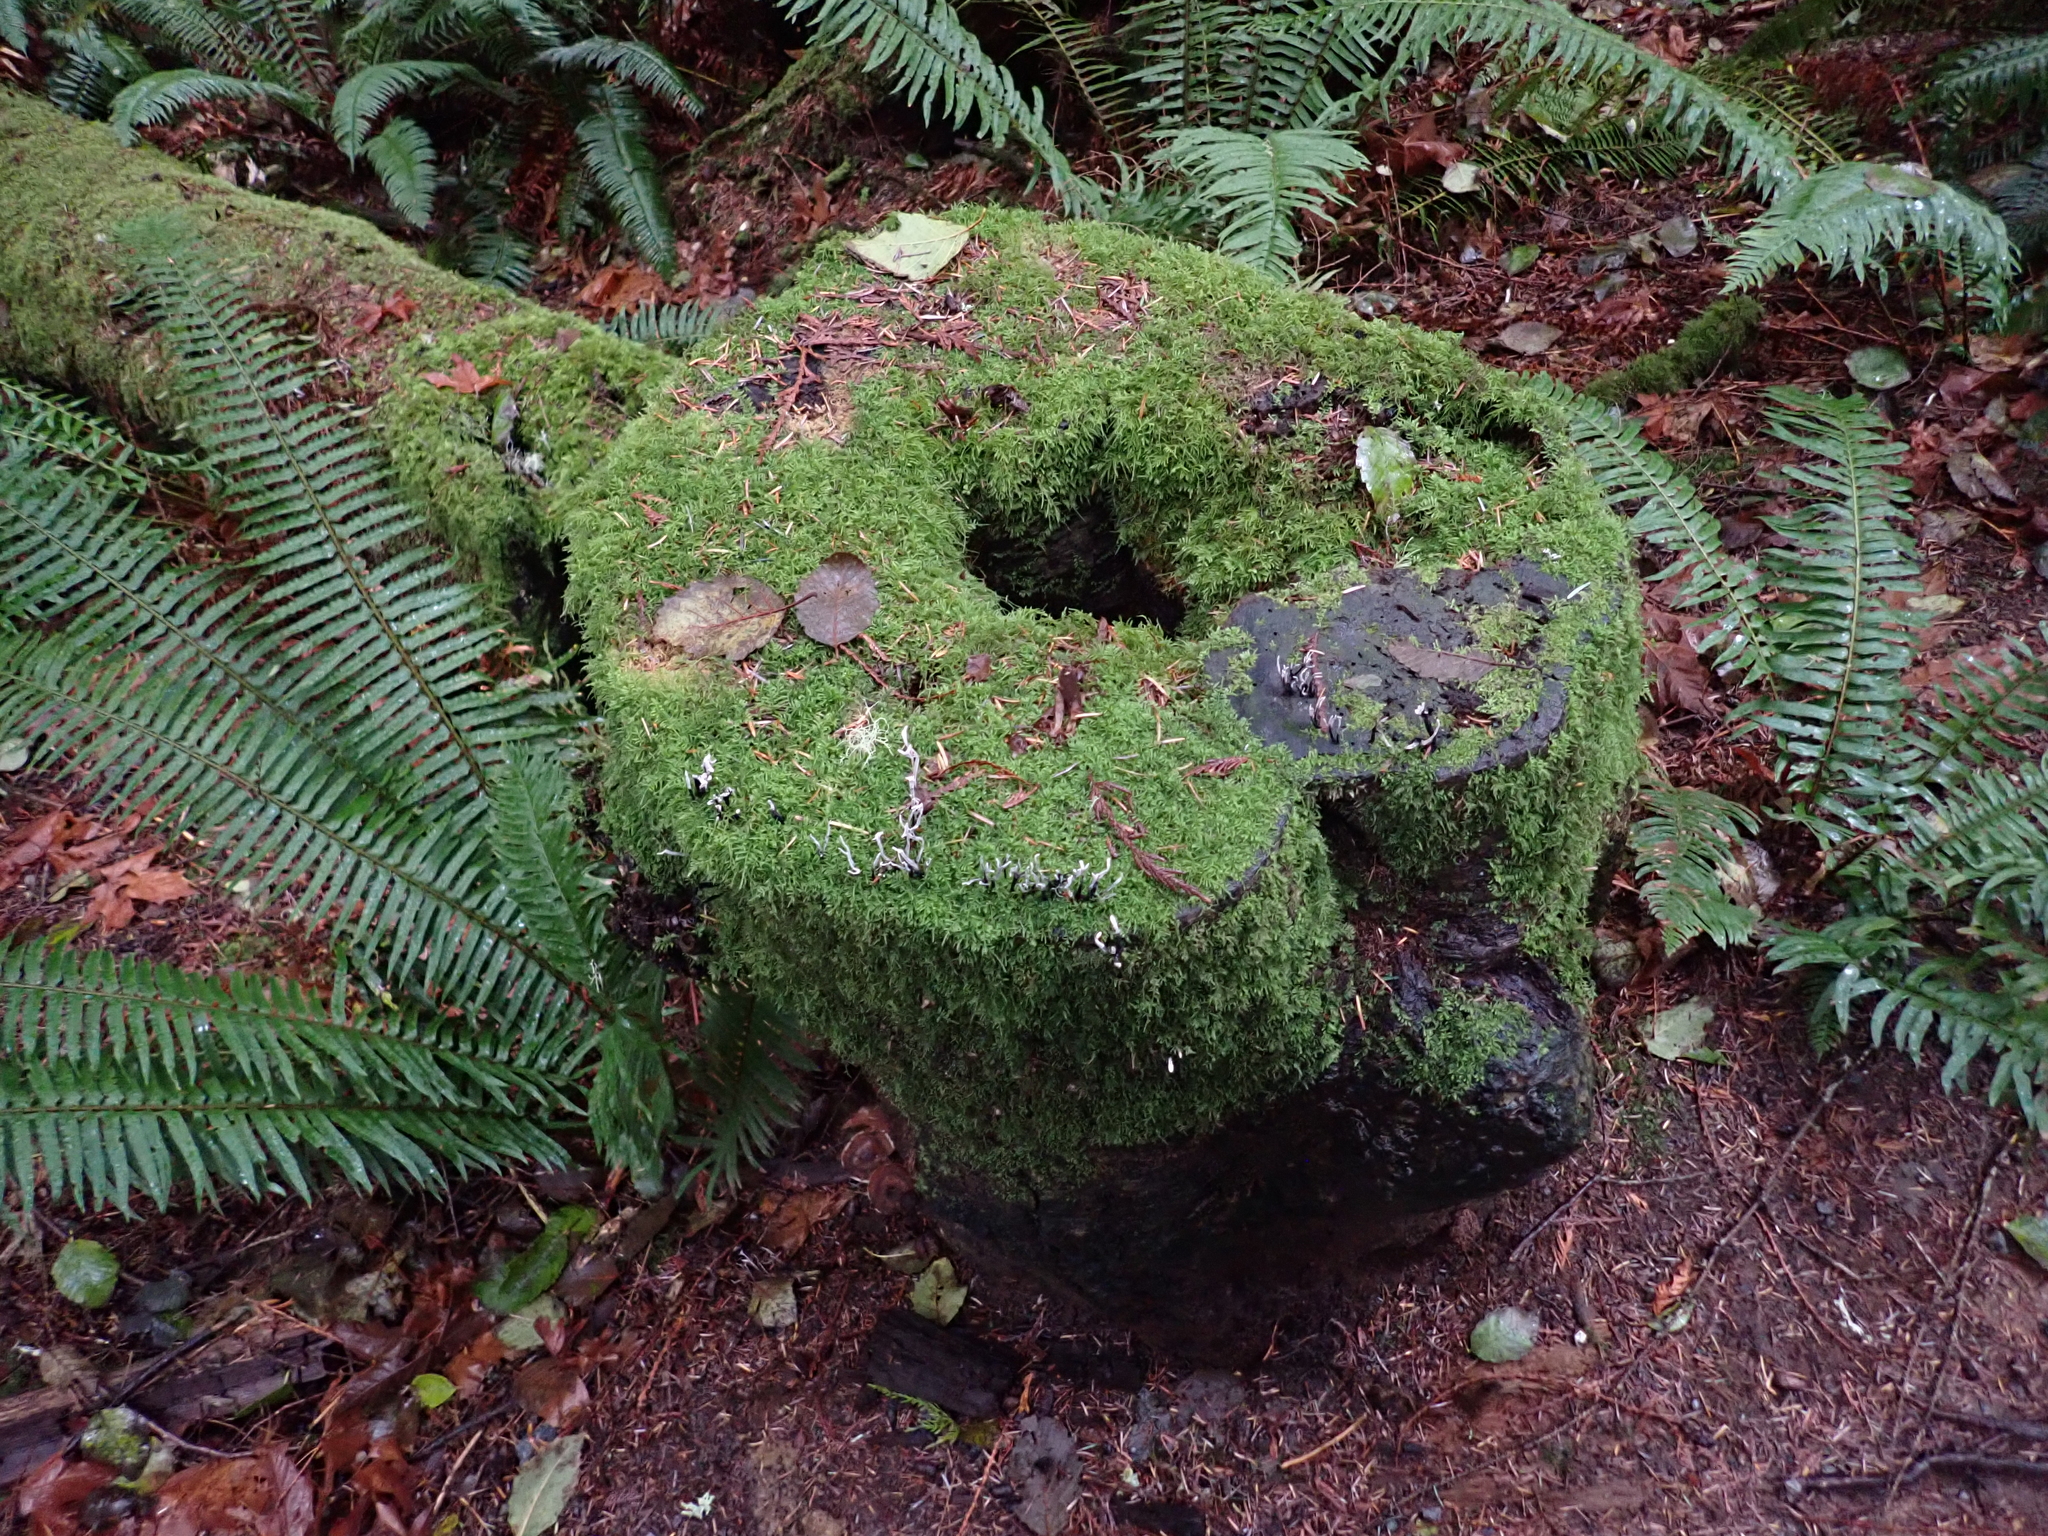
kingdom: Fungi
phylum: Ascomycota
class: Sordariomycetes
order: Xylariales
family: Xylariaceae
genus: Xylaria
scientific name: Xylaria hypoxylon
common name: Candle-snuff fungus
